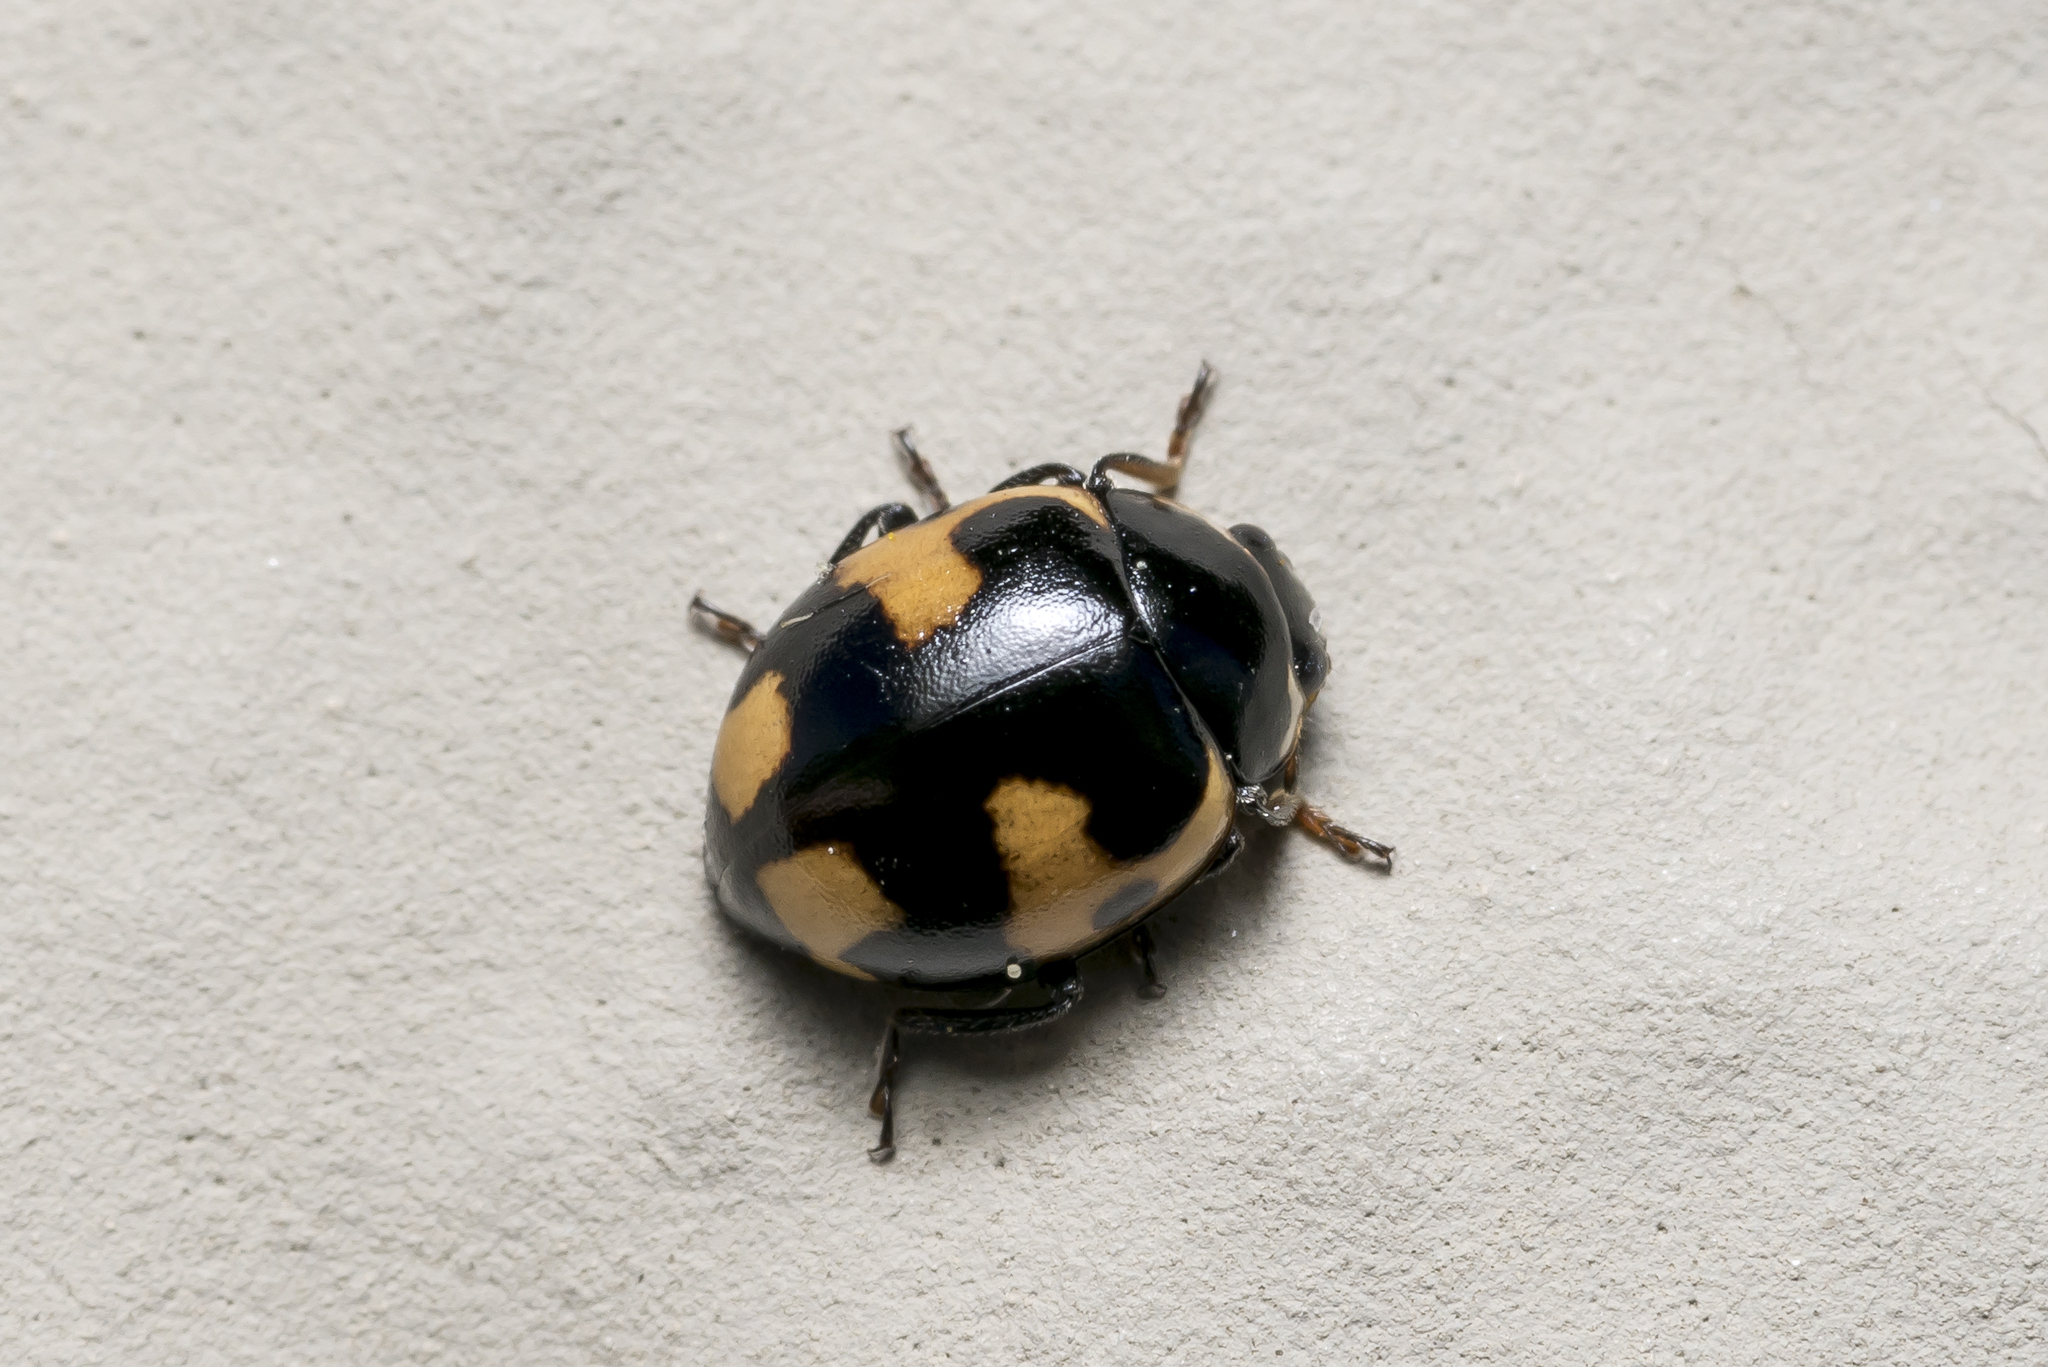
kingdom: Animalia
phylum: Arthropoda
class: Insecta
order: Coleoptera
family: Coccinellidae
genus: Ceratomegilla
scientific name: Ceratomegilla alpina
